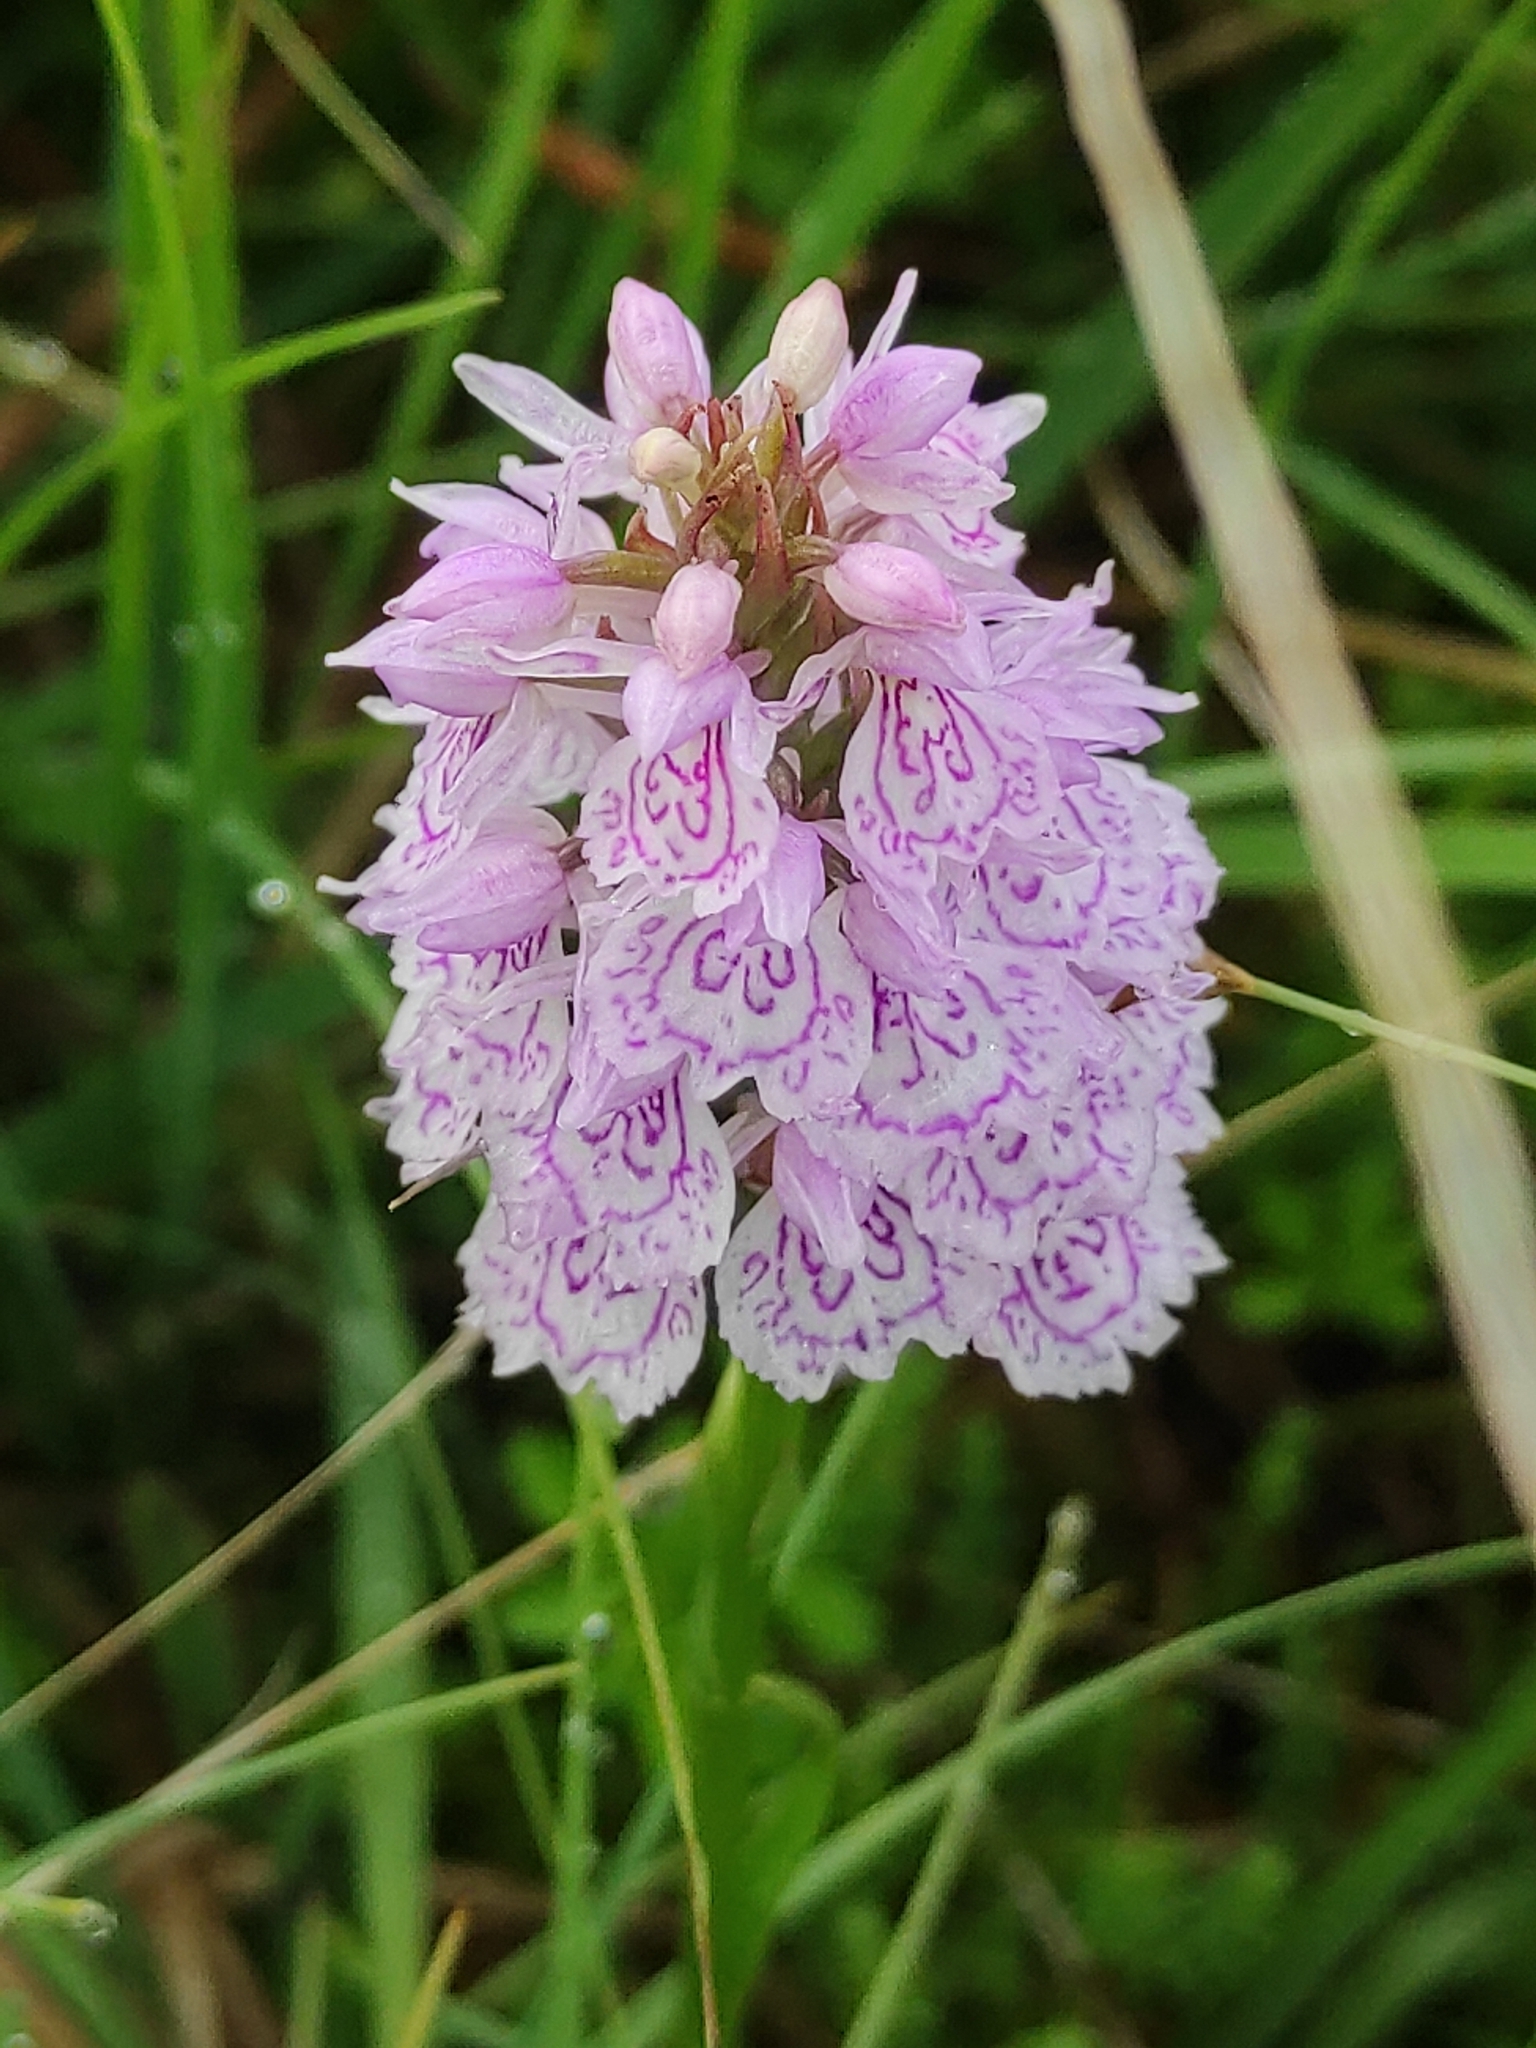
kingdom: Plantae
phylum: Tracheophyta
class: Liliopsida
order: Asparagales
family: Orchidaceae
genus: Dactylorhiza
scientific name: Dactylorhiza maculata
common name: Heath spotted-orchid
